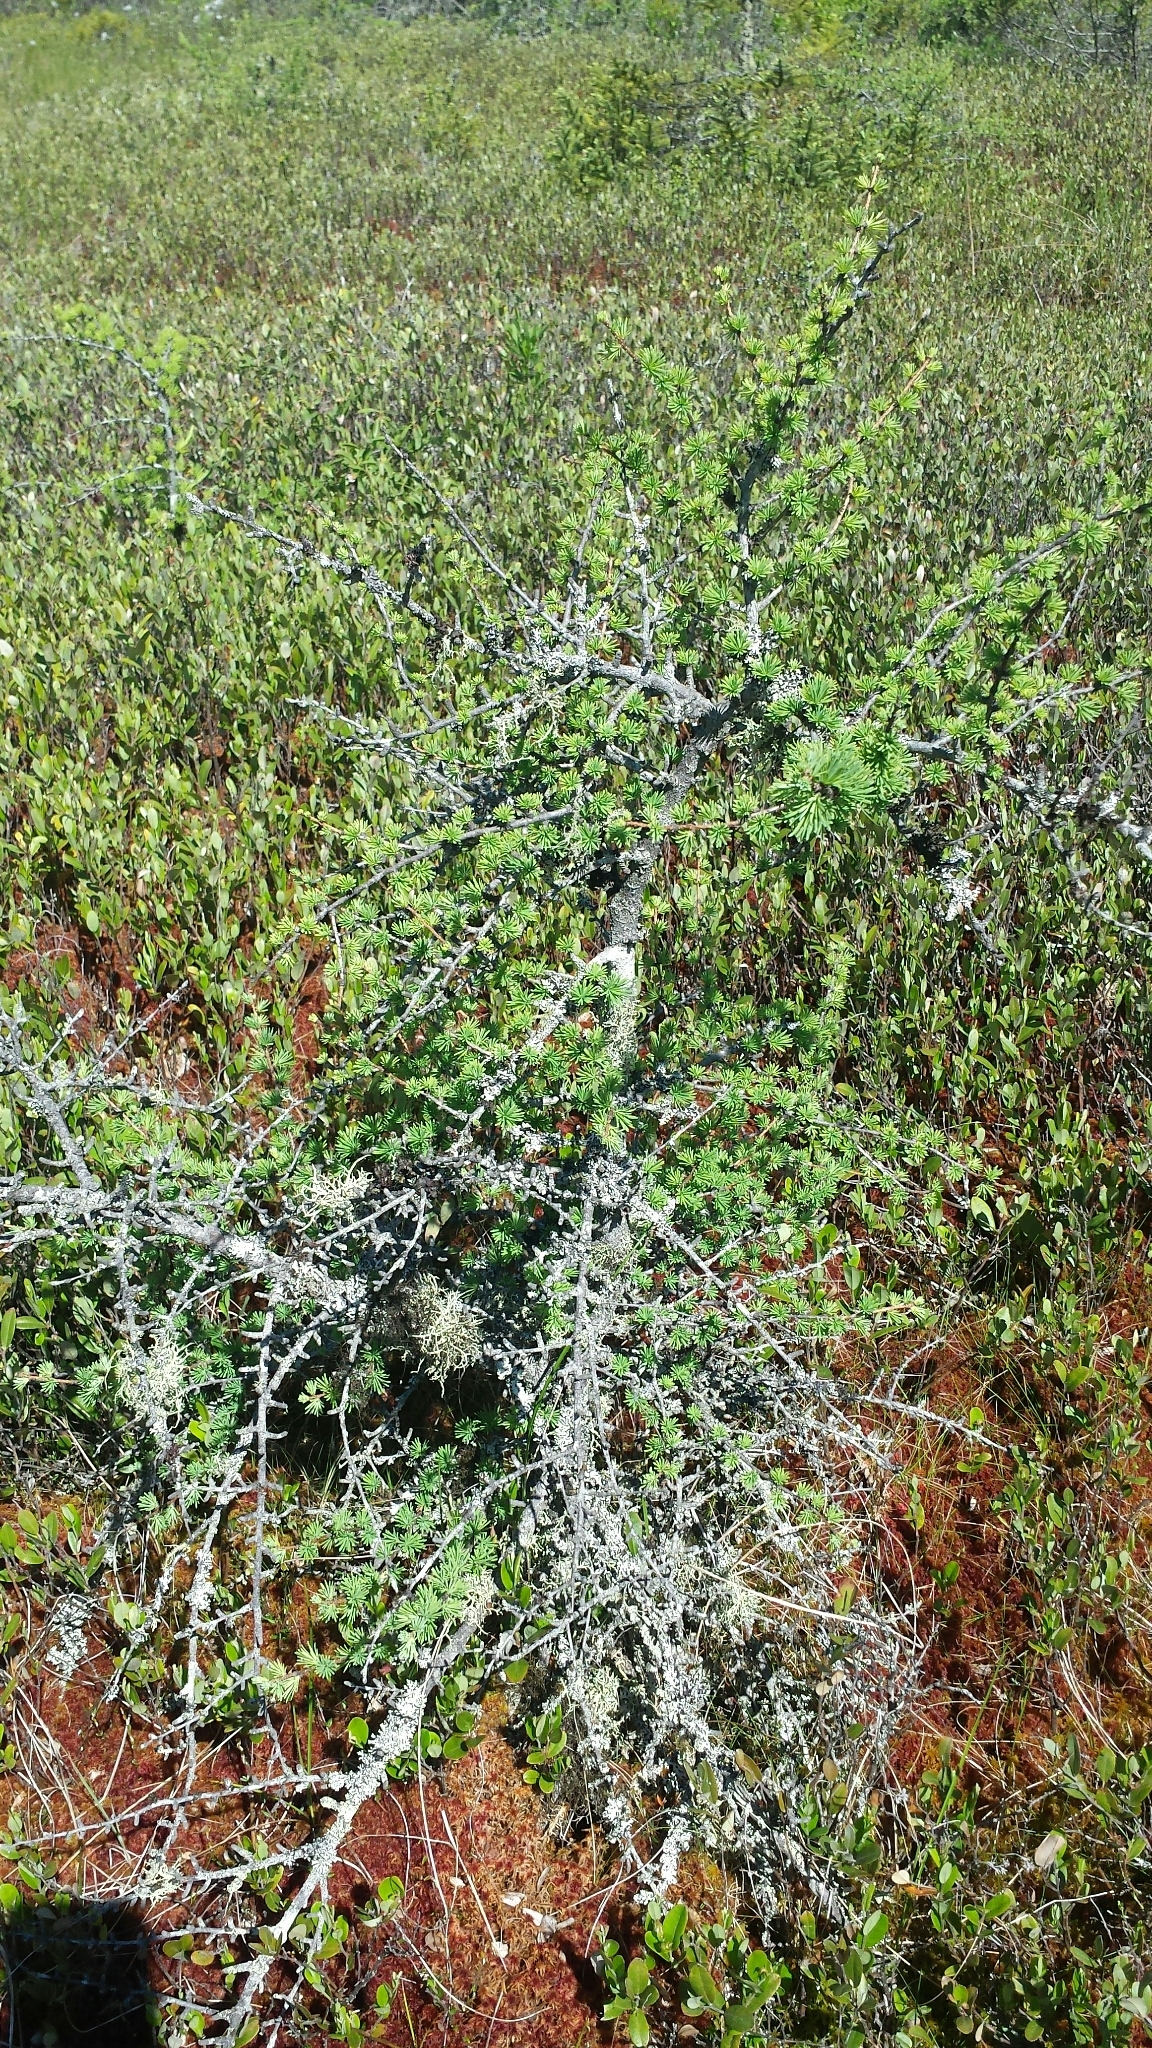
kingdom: Plantae
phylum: Tracheophyta
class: Pinopsida
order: Pinales
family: Pinaceae
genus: Larix
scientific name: Larix laricina
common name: American larch
